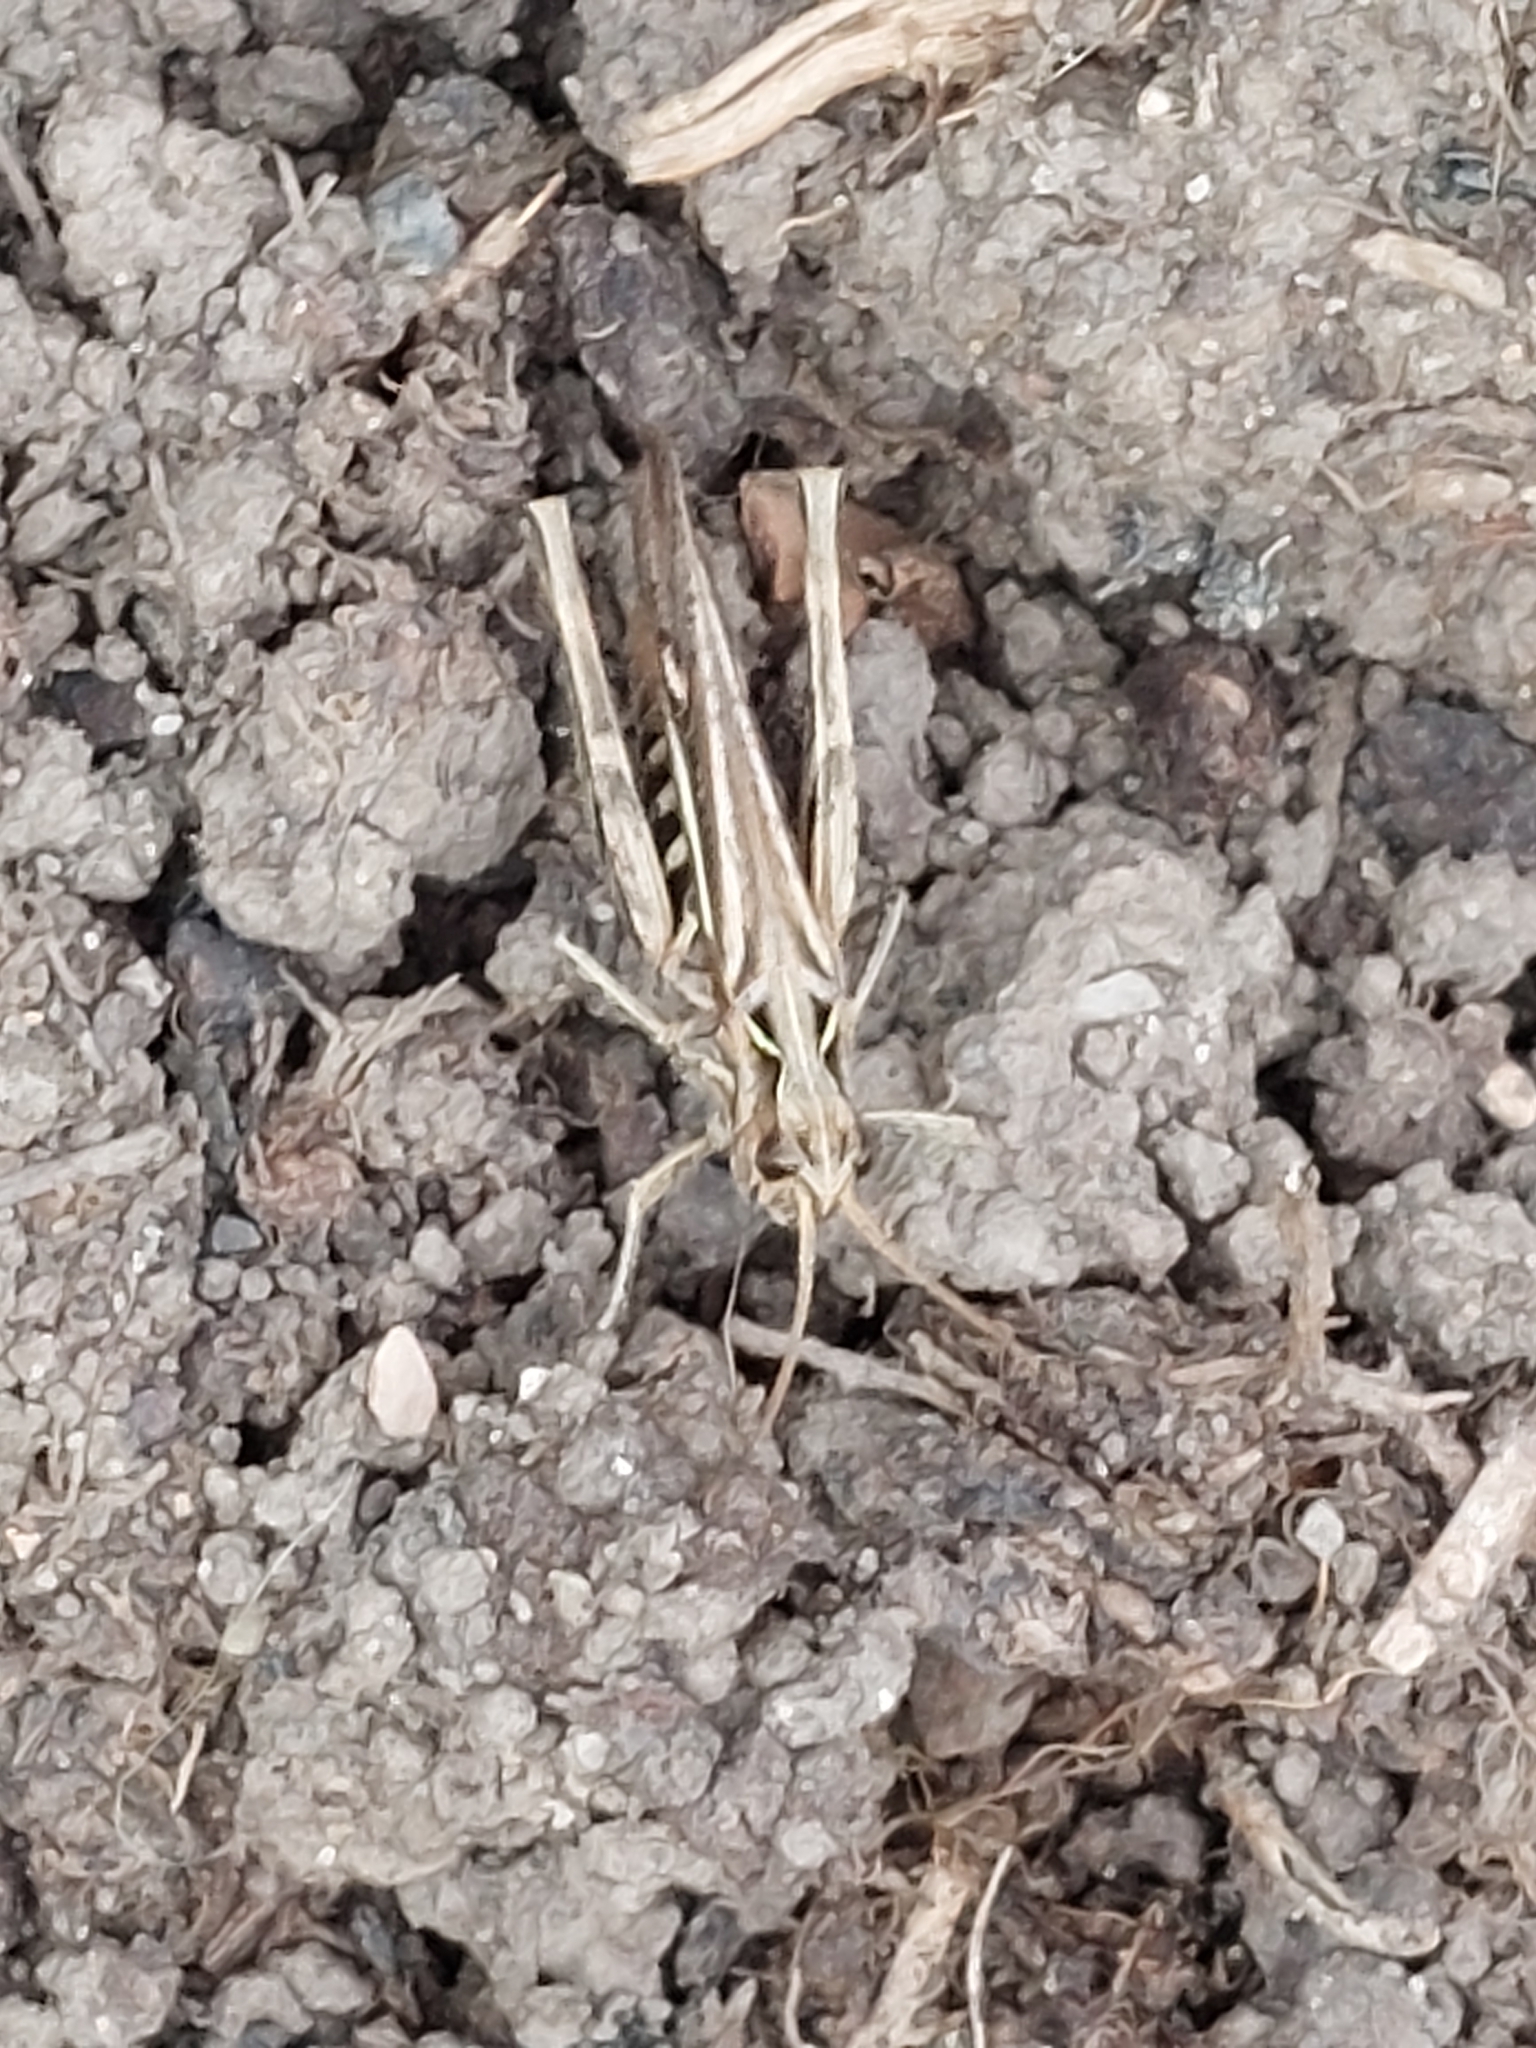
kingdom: Animalia
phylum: Arthropoda
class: Insecta
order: Orthoptera
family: Acrididae
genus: Chorthippus
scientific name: Chorthippus brunneus
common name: Field grasshopper
